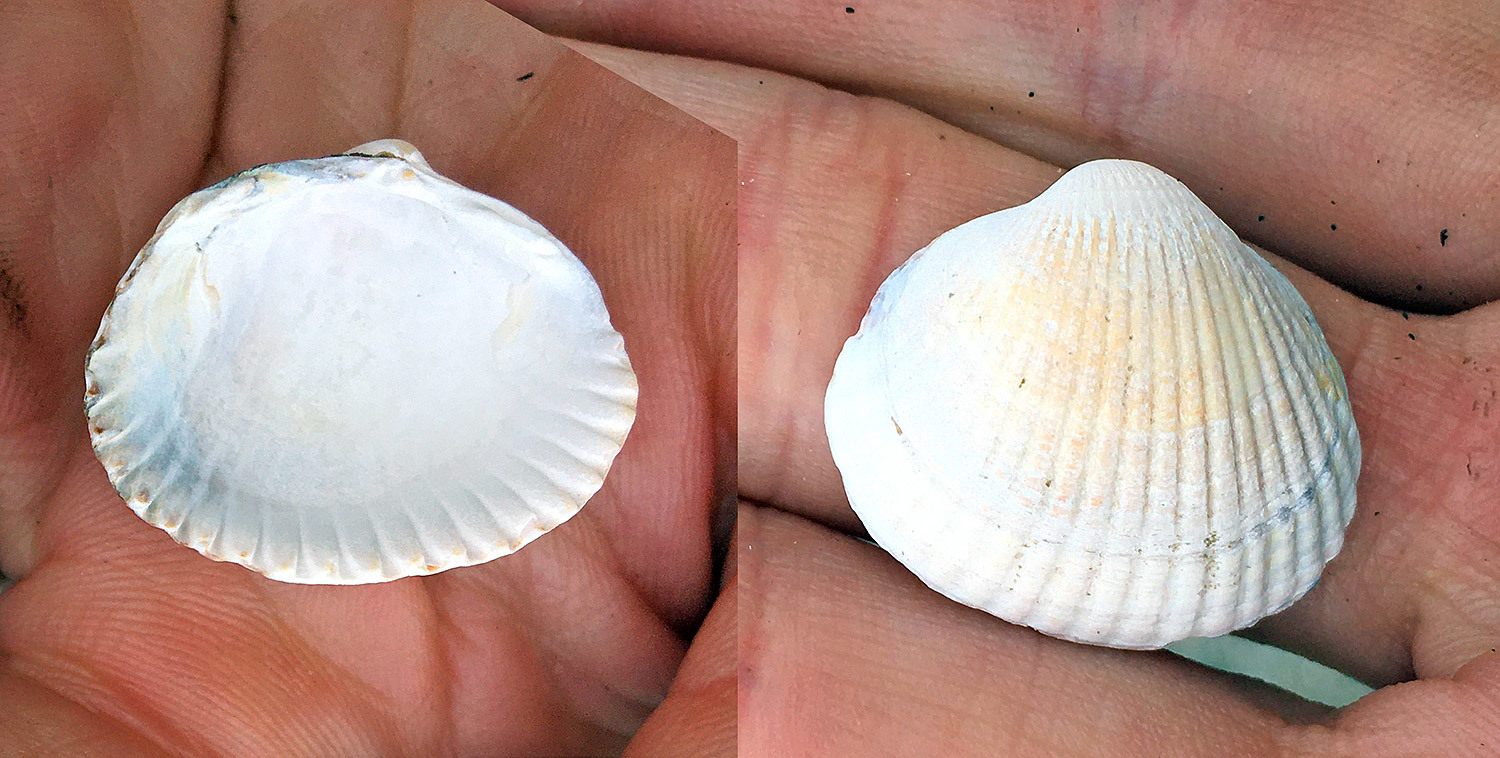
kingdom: Animalia
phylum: Mollusca
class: Bivalvia
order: Cardiida
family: Cardiidae
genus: Cerastoderma
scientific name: Cerastoderma edule
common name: Common cockle
